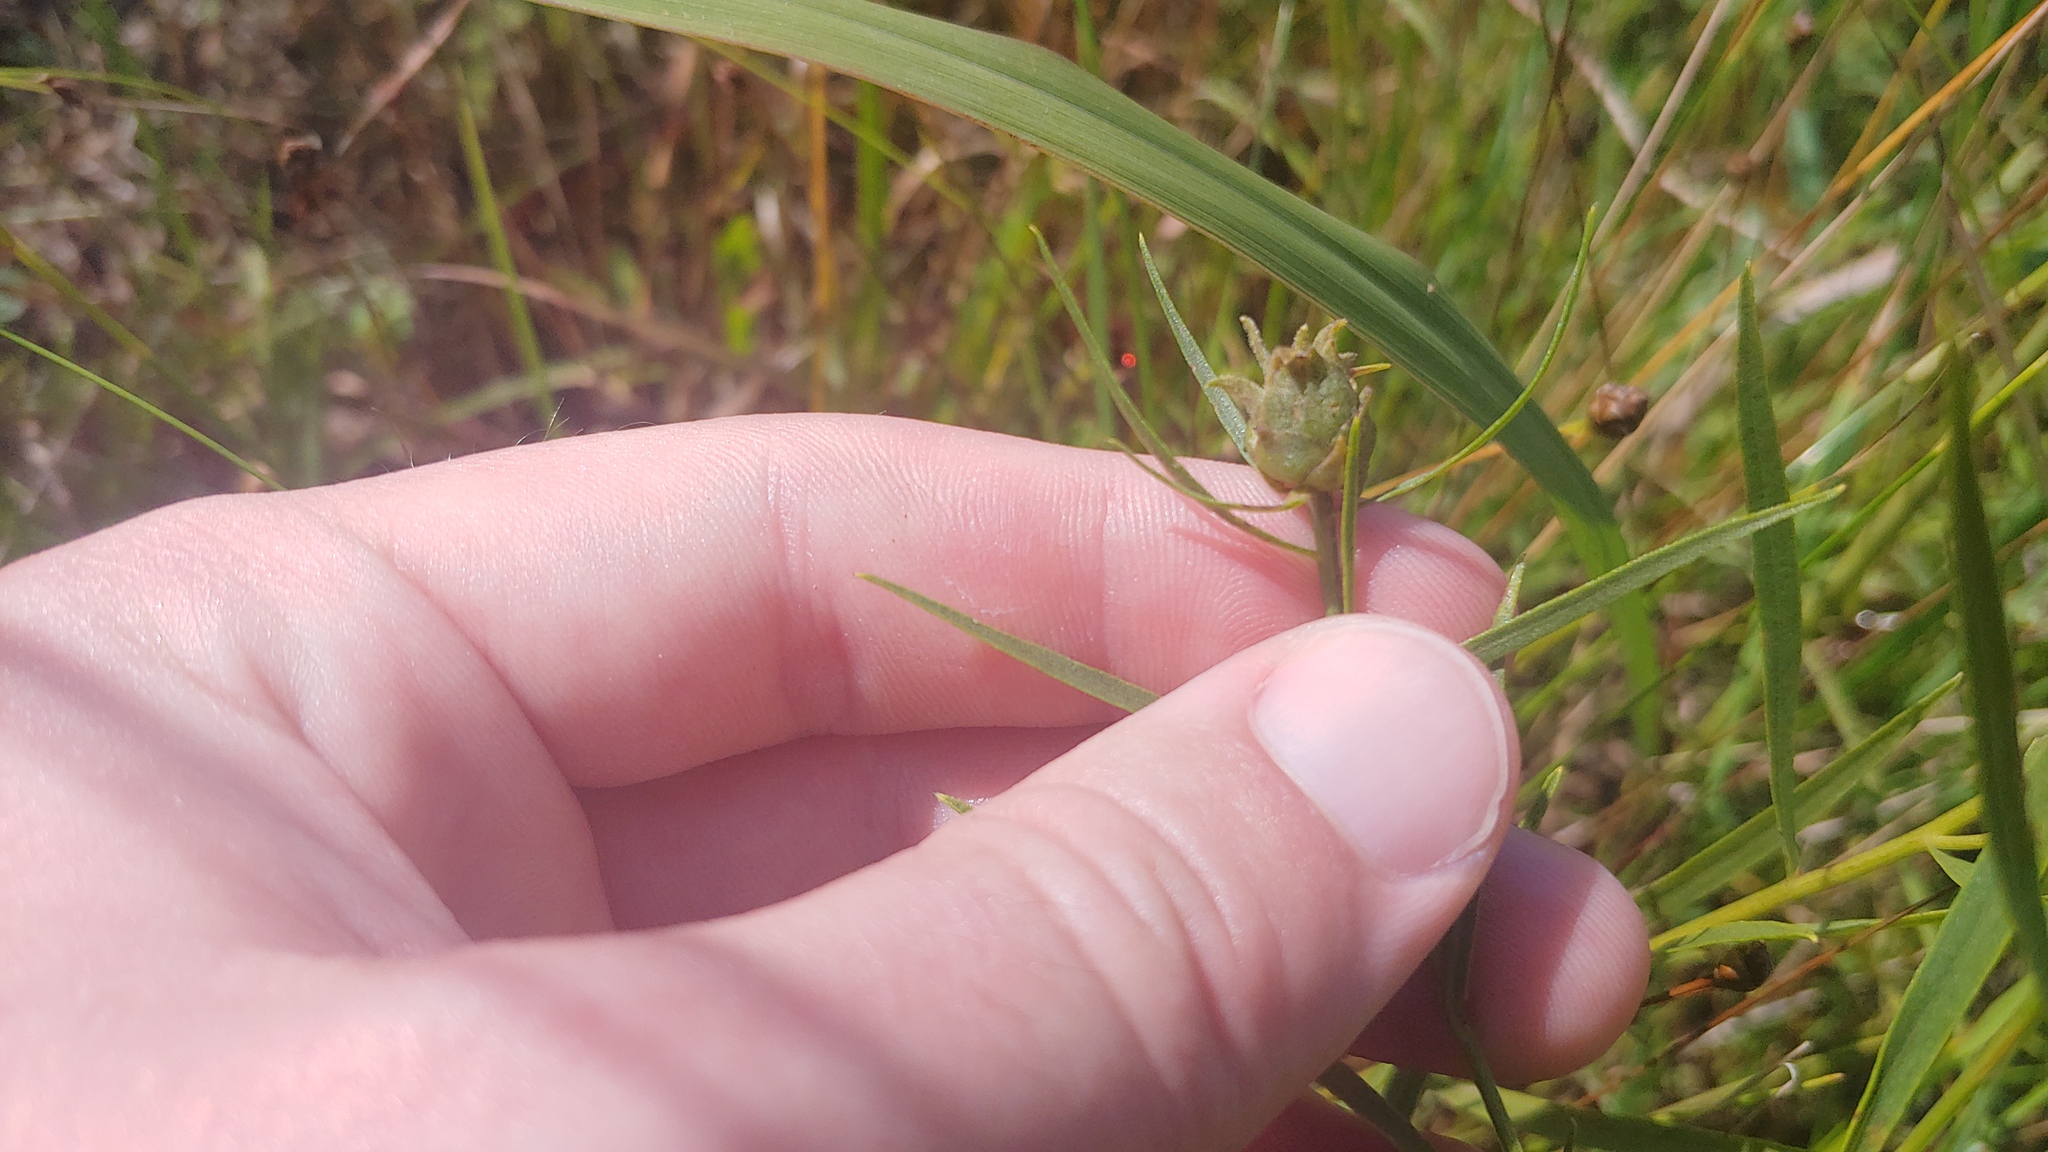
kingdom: Animalia
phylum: Arthropoda
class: Insecta
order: Diptera
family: Cecidomyiidae
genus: Asphondylia
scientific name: Asphondylia pseudorosa
